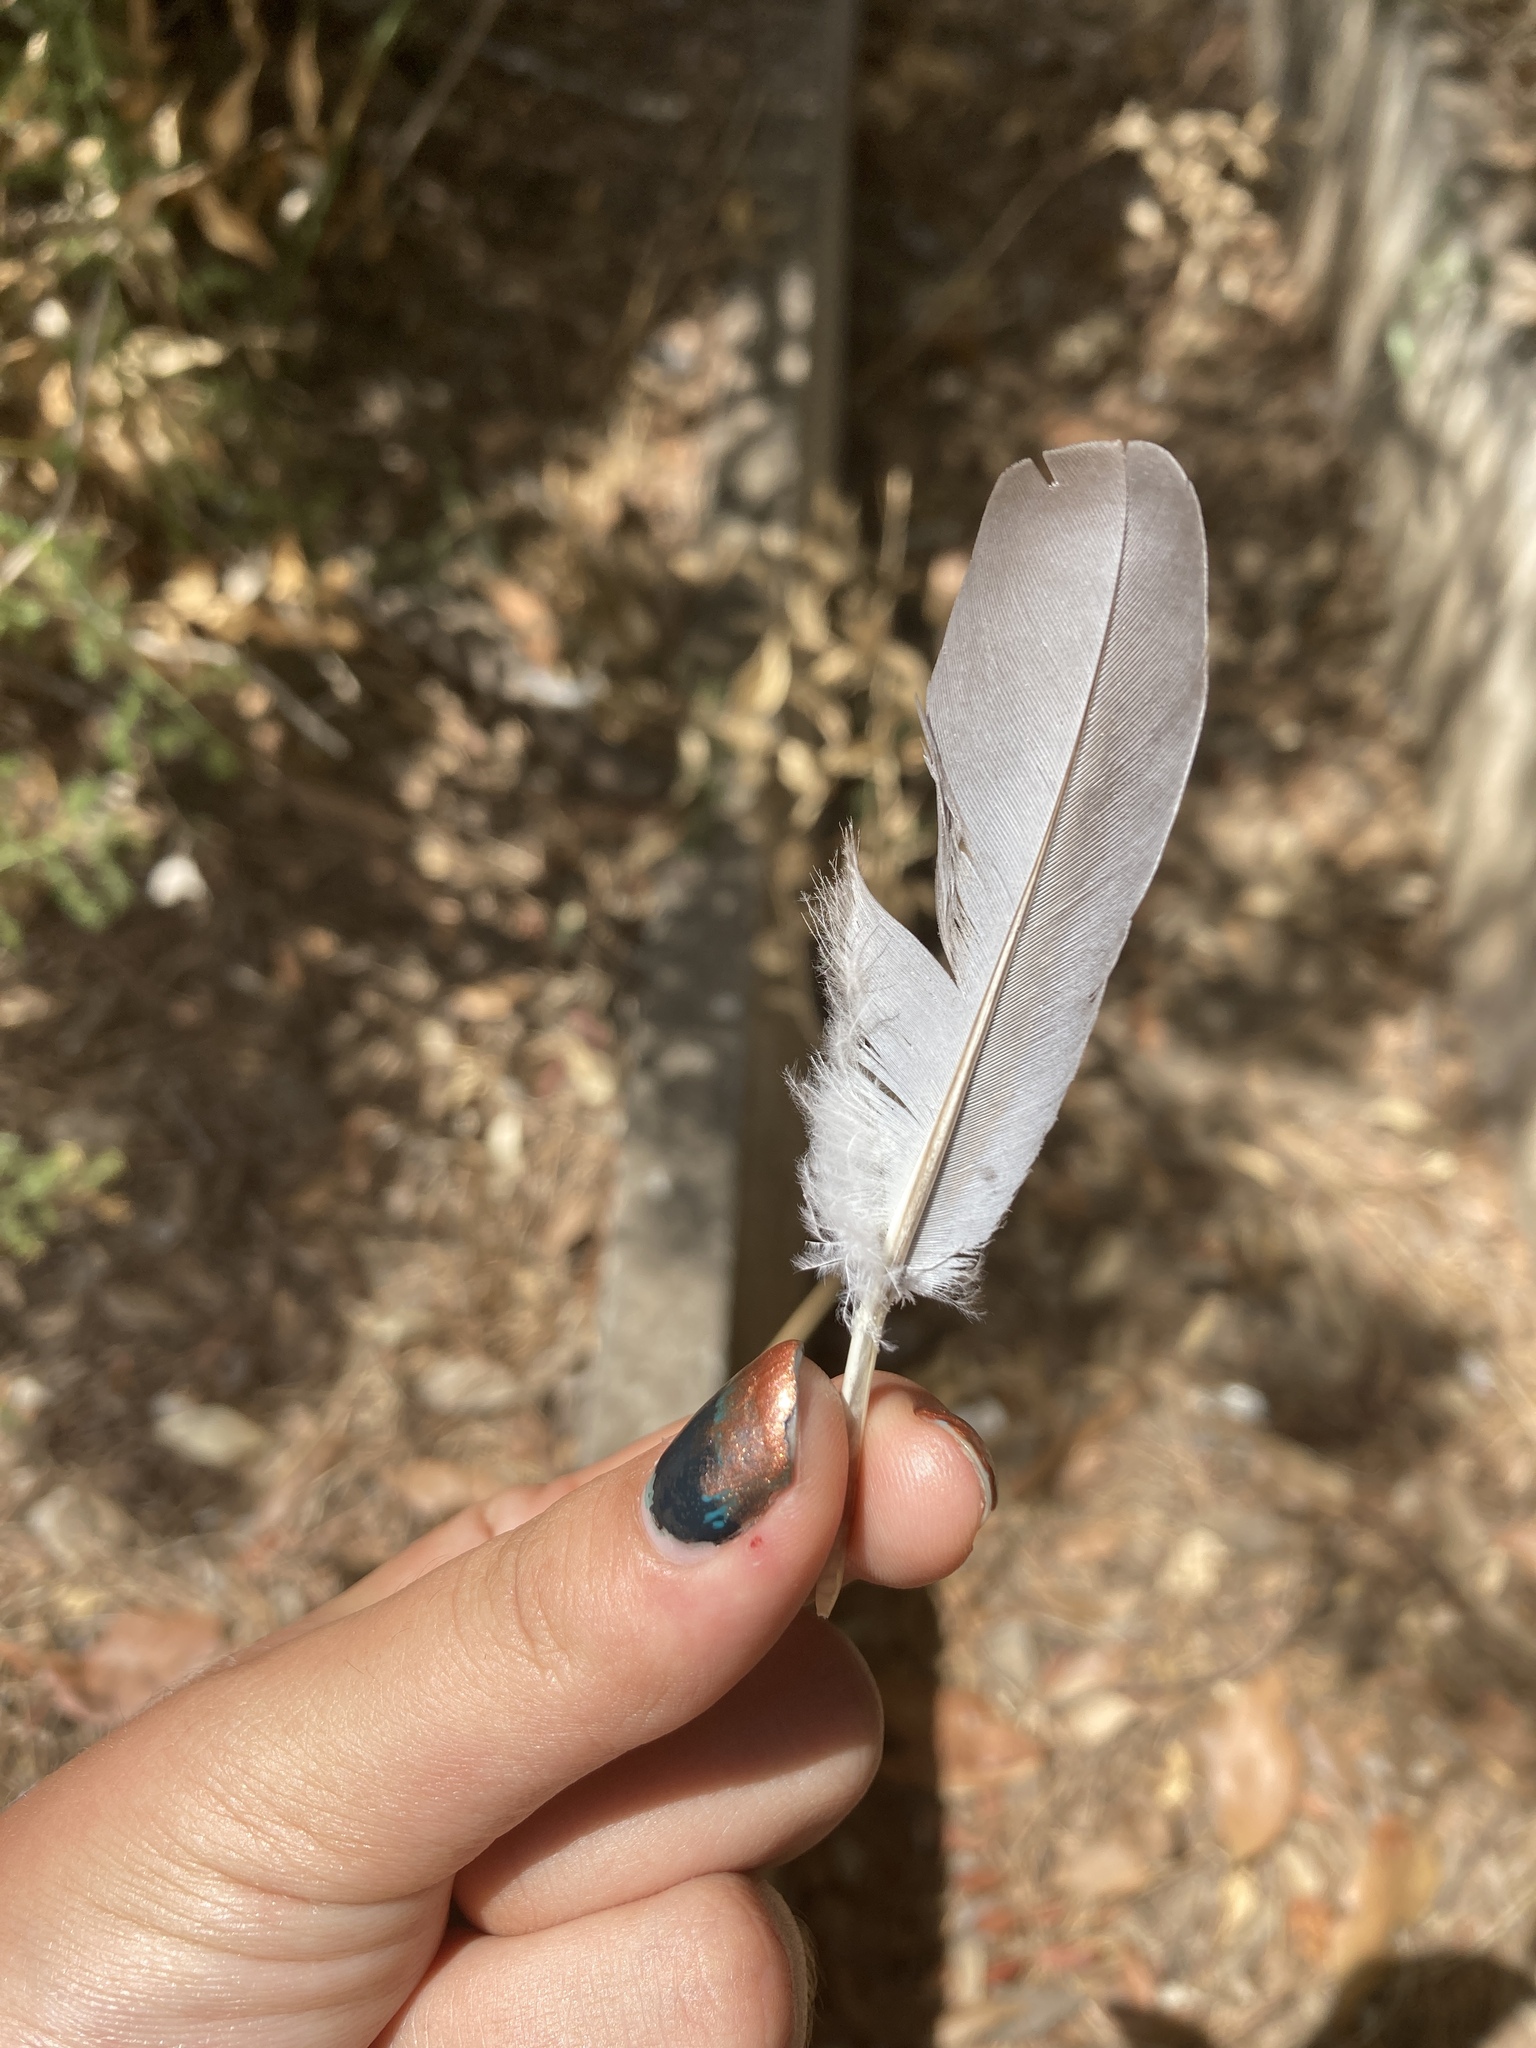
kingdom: Animalia
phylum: Chordata
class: Aves
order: Columbiformes
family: Columbidae
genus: Columba
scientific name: Columba palumbus
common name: Common wood pigeon
